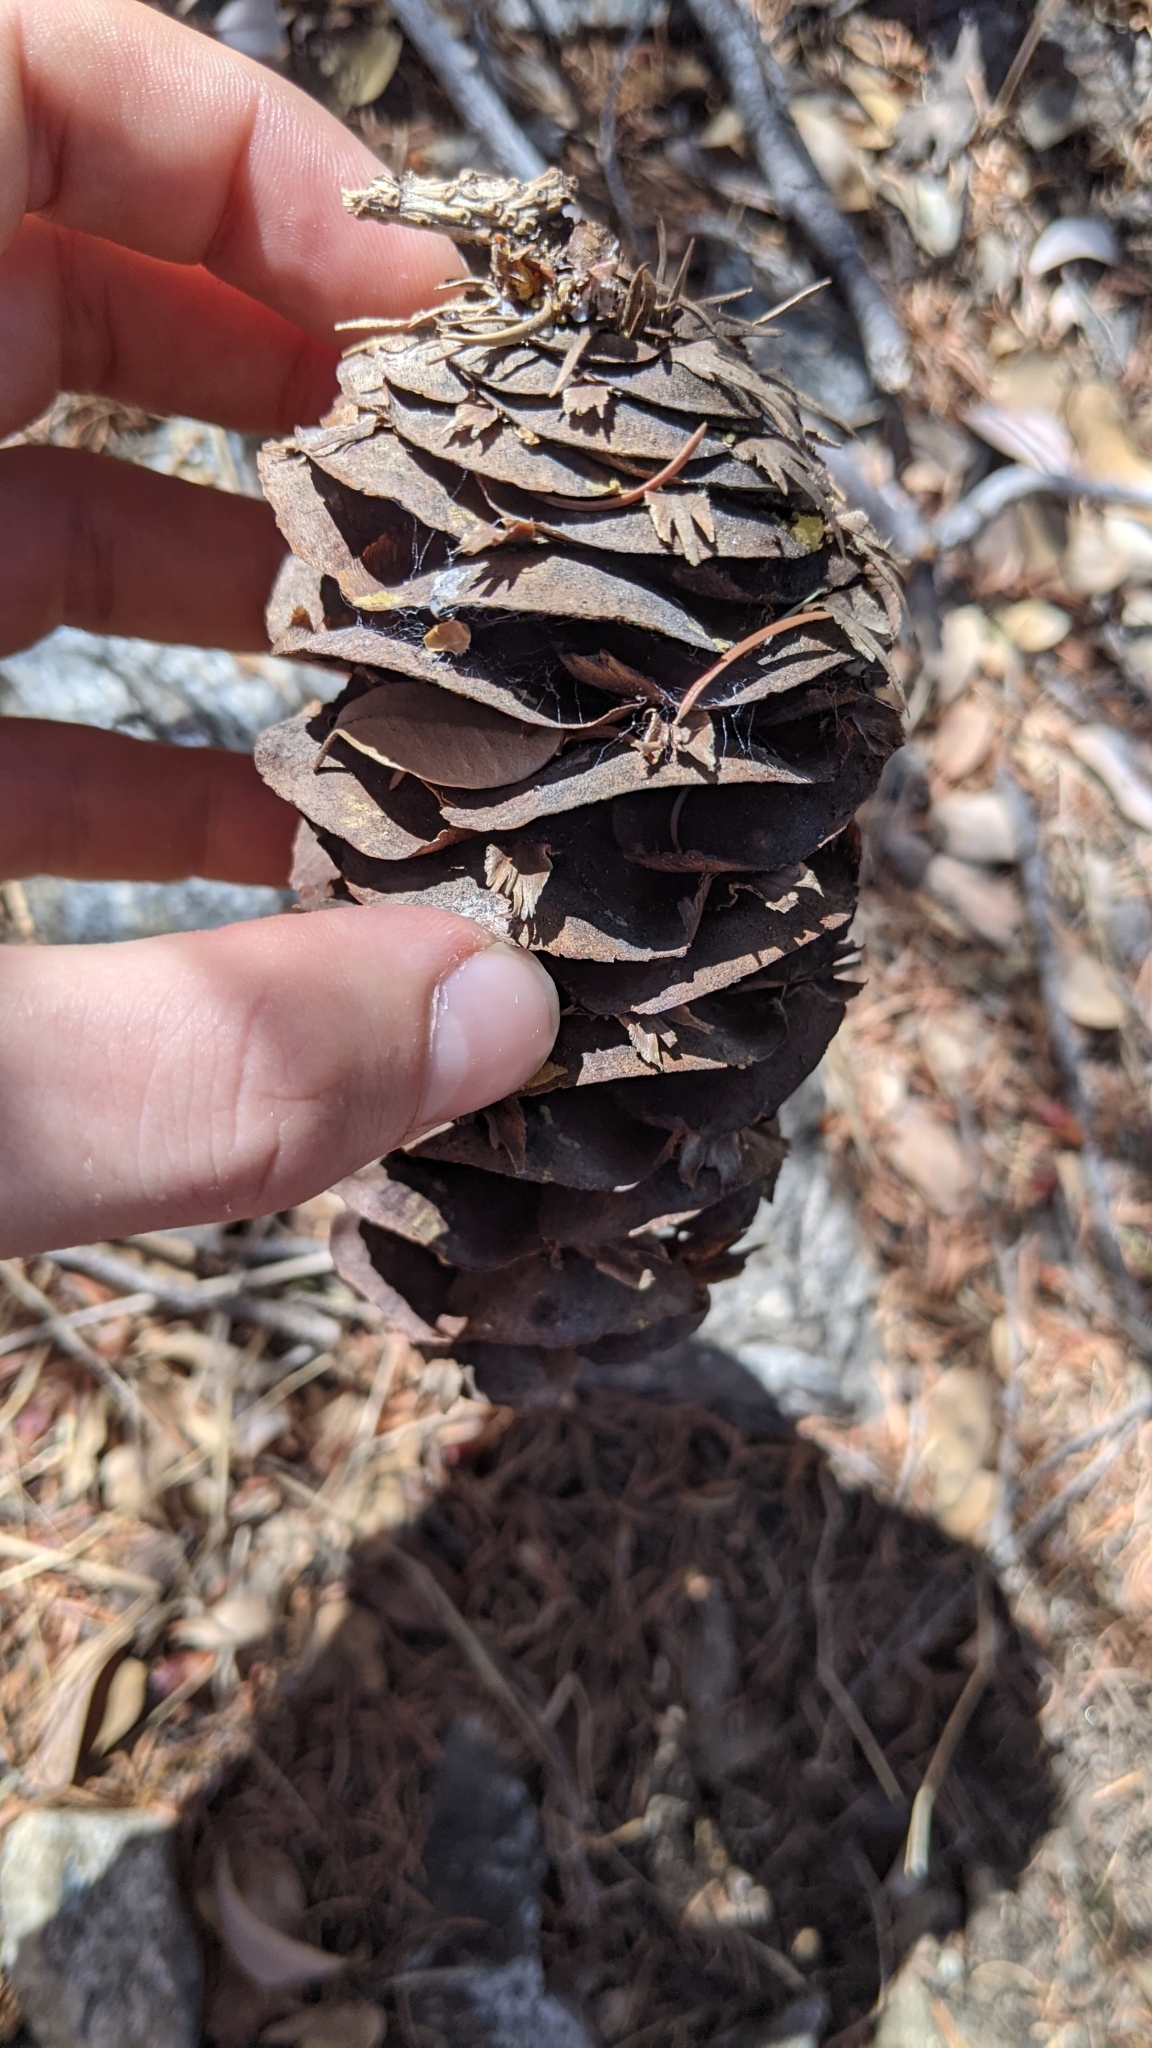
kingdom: Plantae
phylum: Tracheophyta
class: Pinopsida
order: Pinales
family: Pinaceae
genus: Pseudotsuga
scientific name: Pseudotsuga macrocarpa
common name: Big-cone douglas-fir
